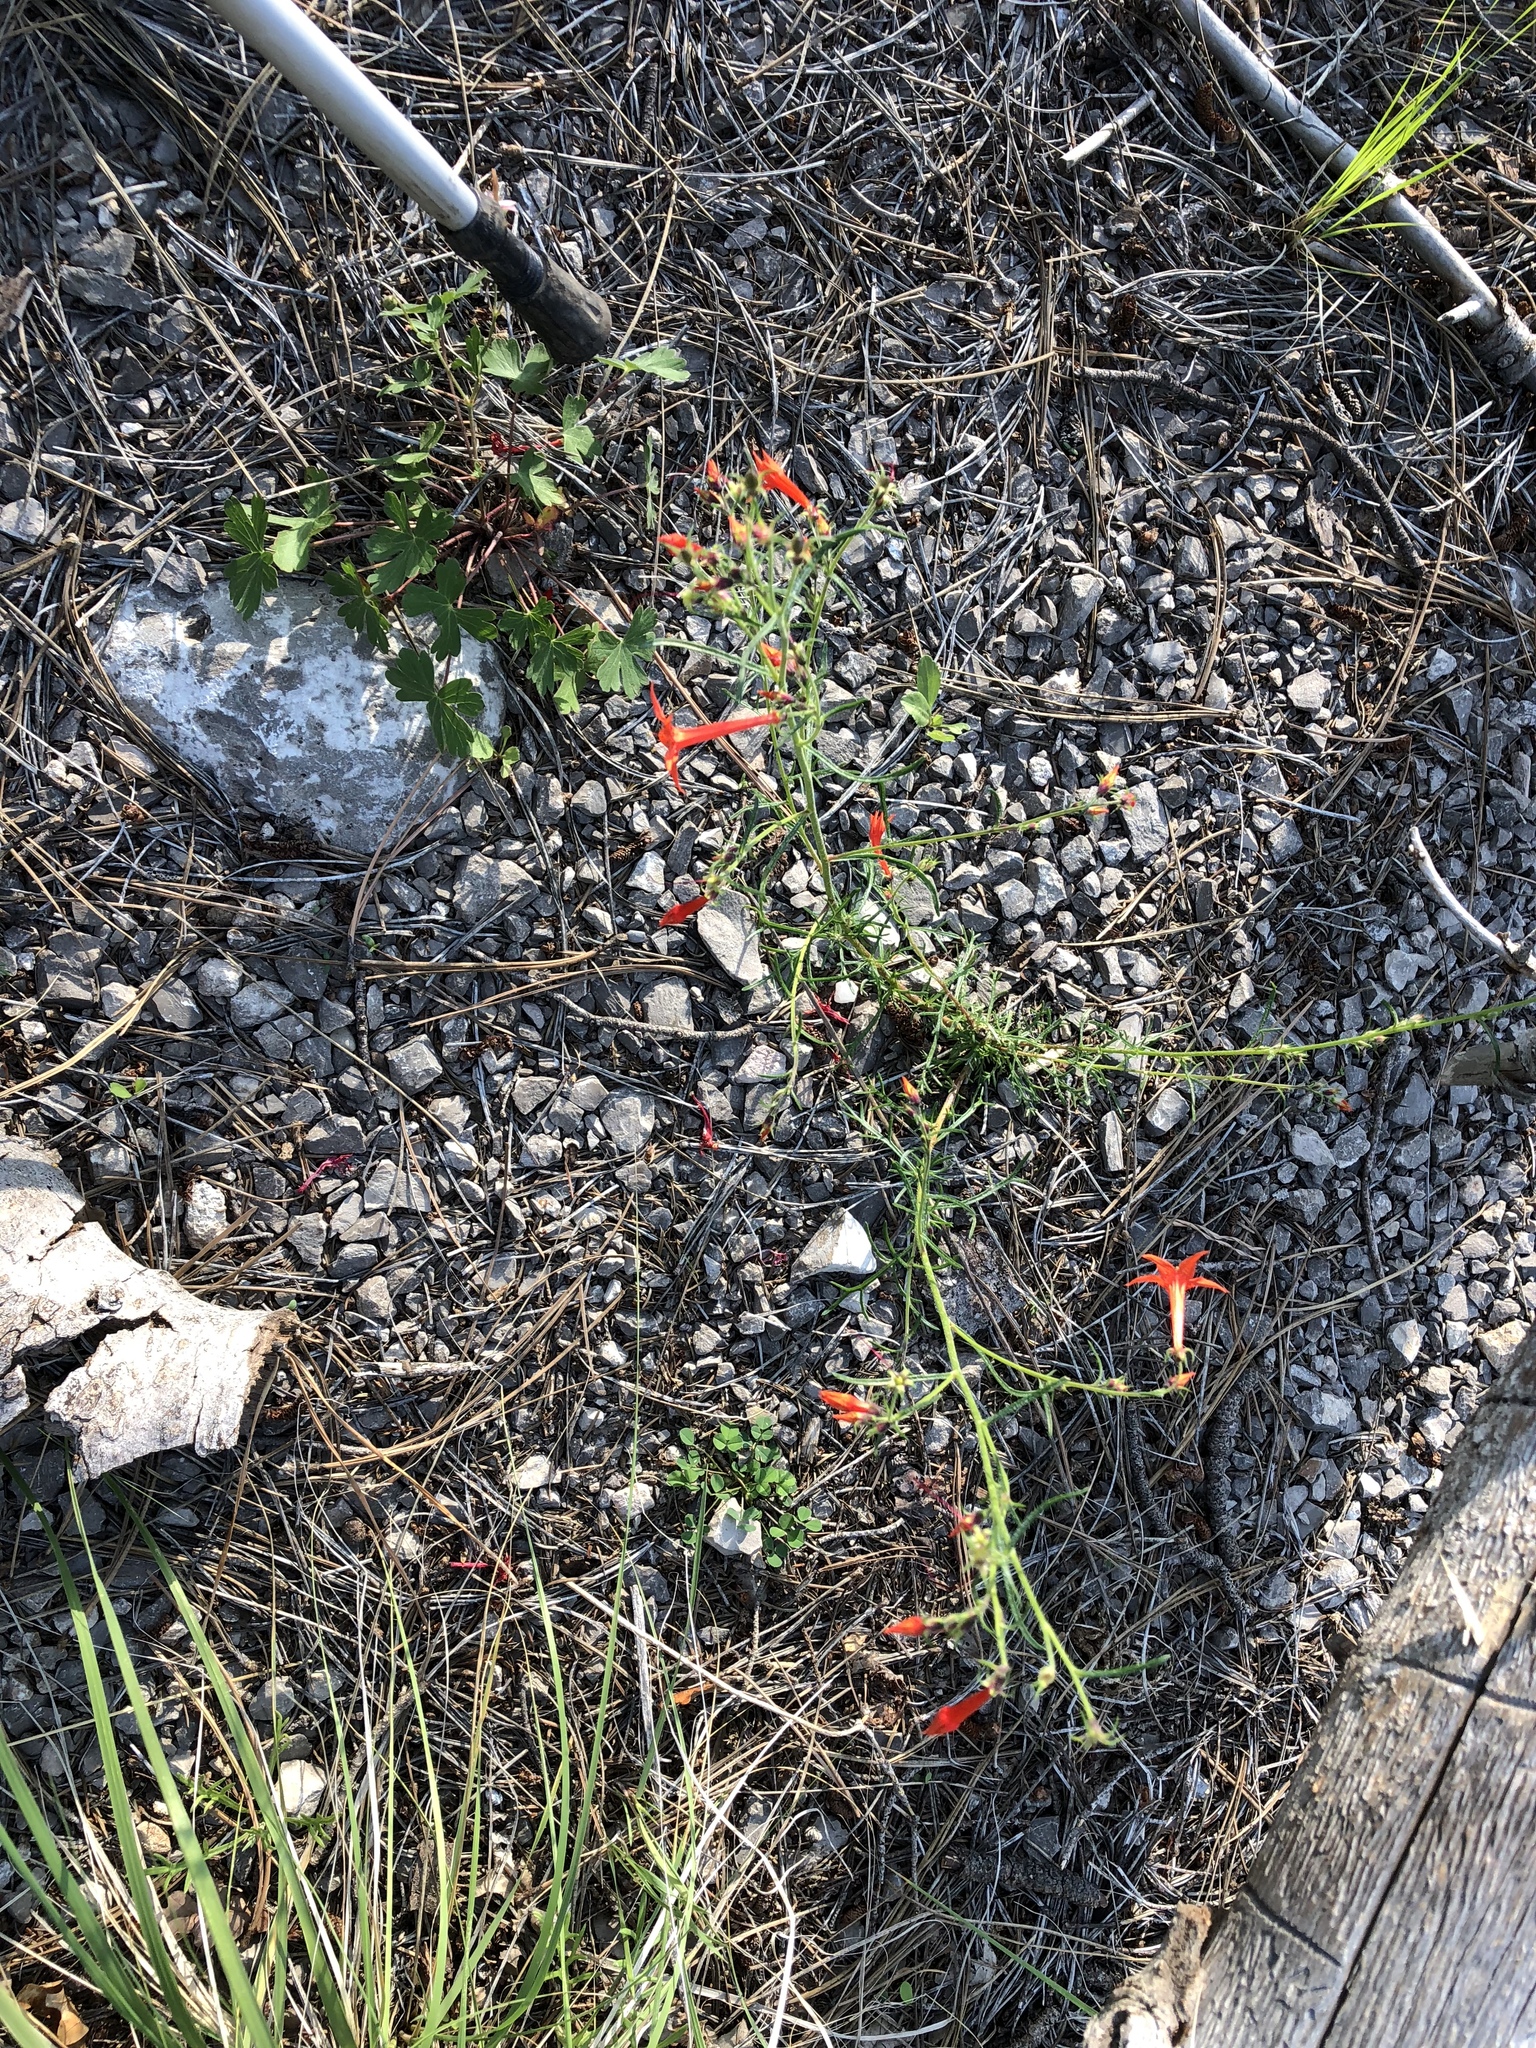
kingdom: Plantae
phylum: Tracheophyta
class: Magnoliopsida
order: Ericales
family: Polemoniaceae
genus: Ipomopsis
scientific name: Ipomopsis aggregata
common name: Scarlet gilia
